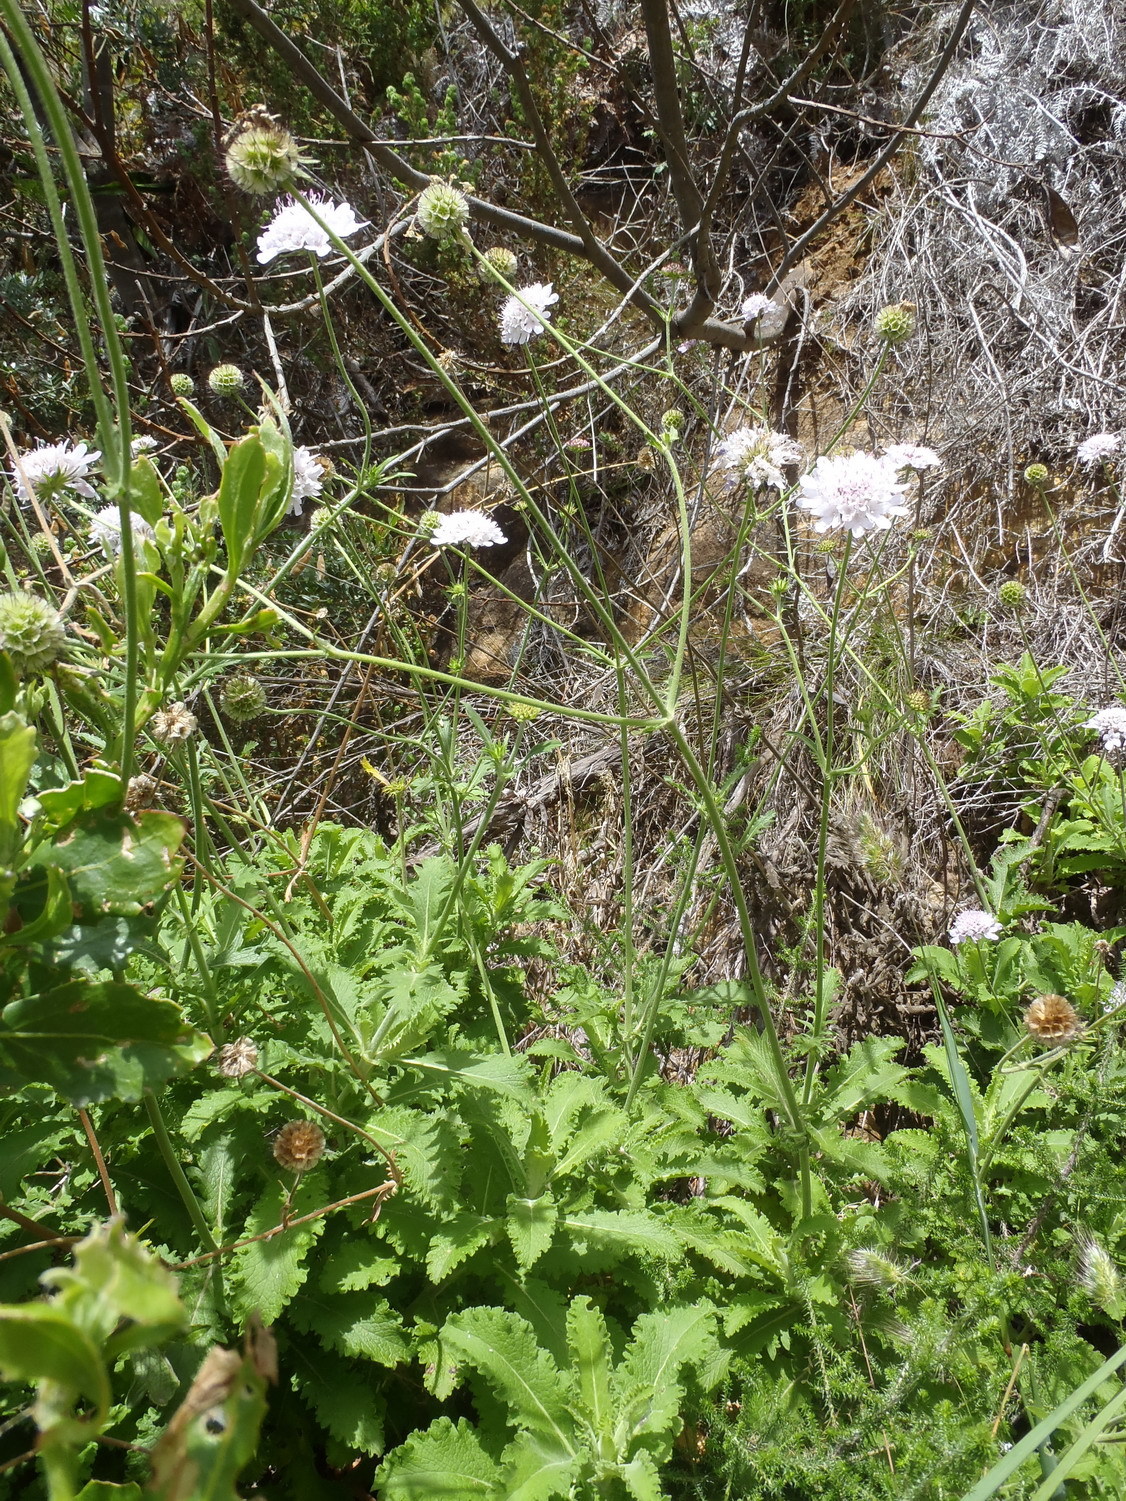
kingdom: Plantae
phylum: Tracheophyta
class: Magnoliopsida
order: Dipsacales
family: Caprifoliaceae
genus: Scabiosa
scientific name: Scabiosa africana
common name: Cape scabious
